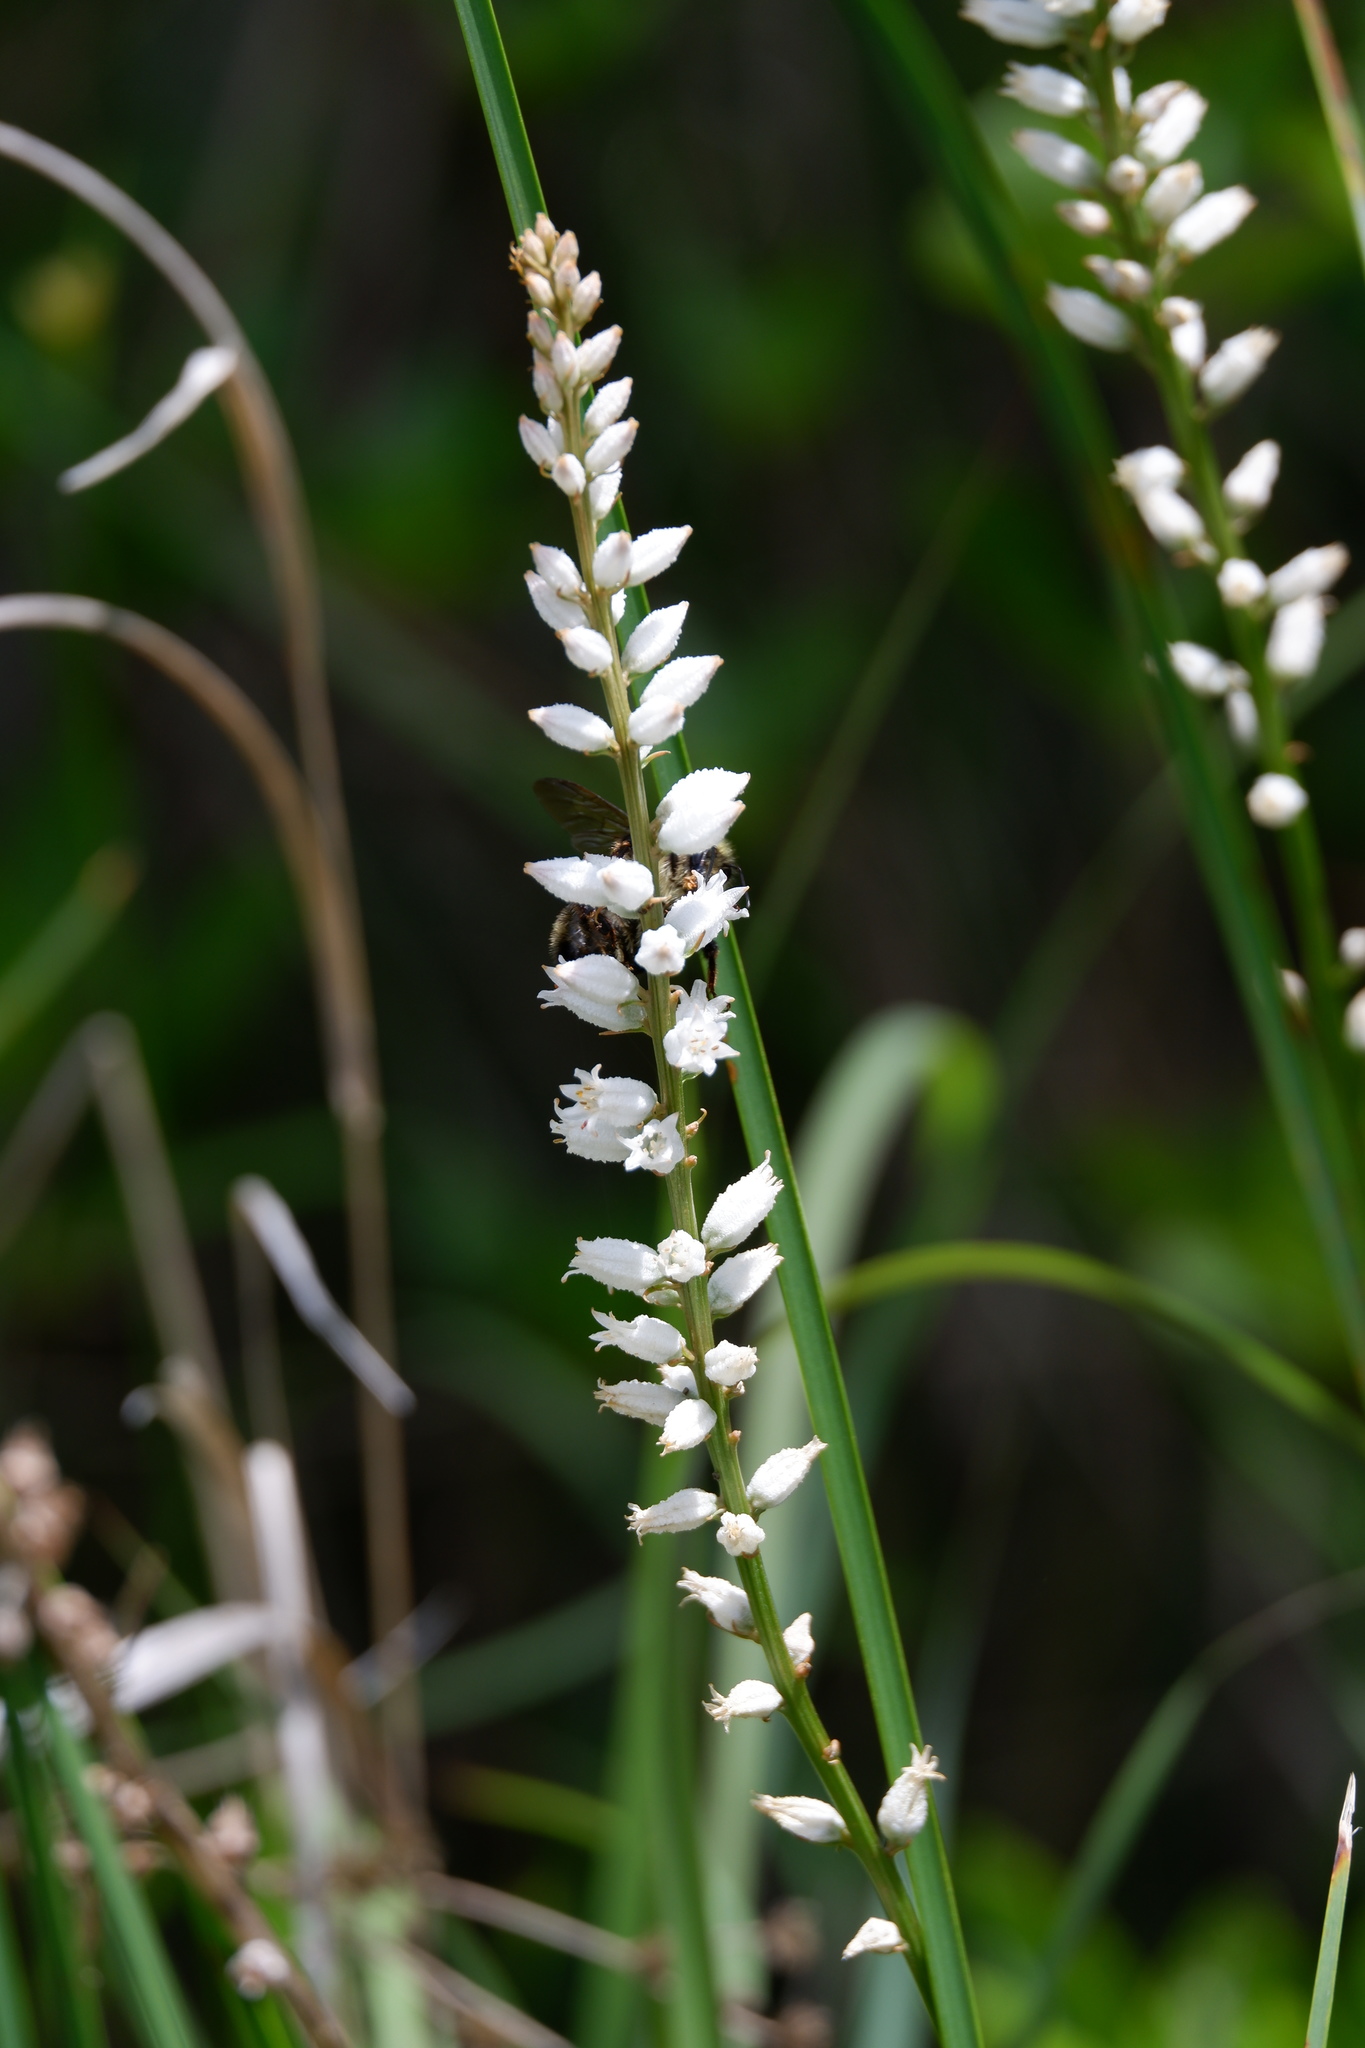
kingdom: Plantae
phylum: Tracheophyta
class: Liliopsida
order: Dioscoreales
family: Nartheciaceae
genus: Aletris
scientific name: Aletris farinosa
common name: Colicroot
